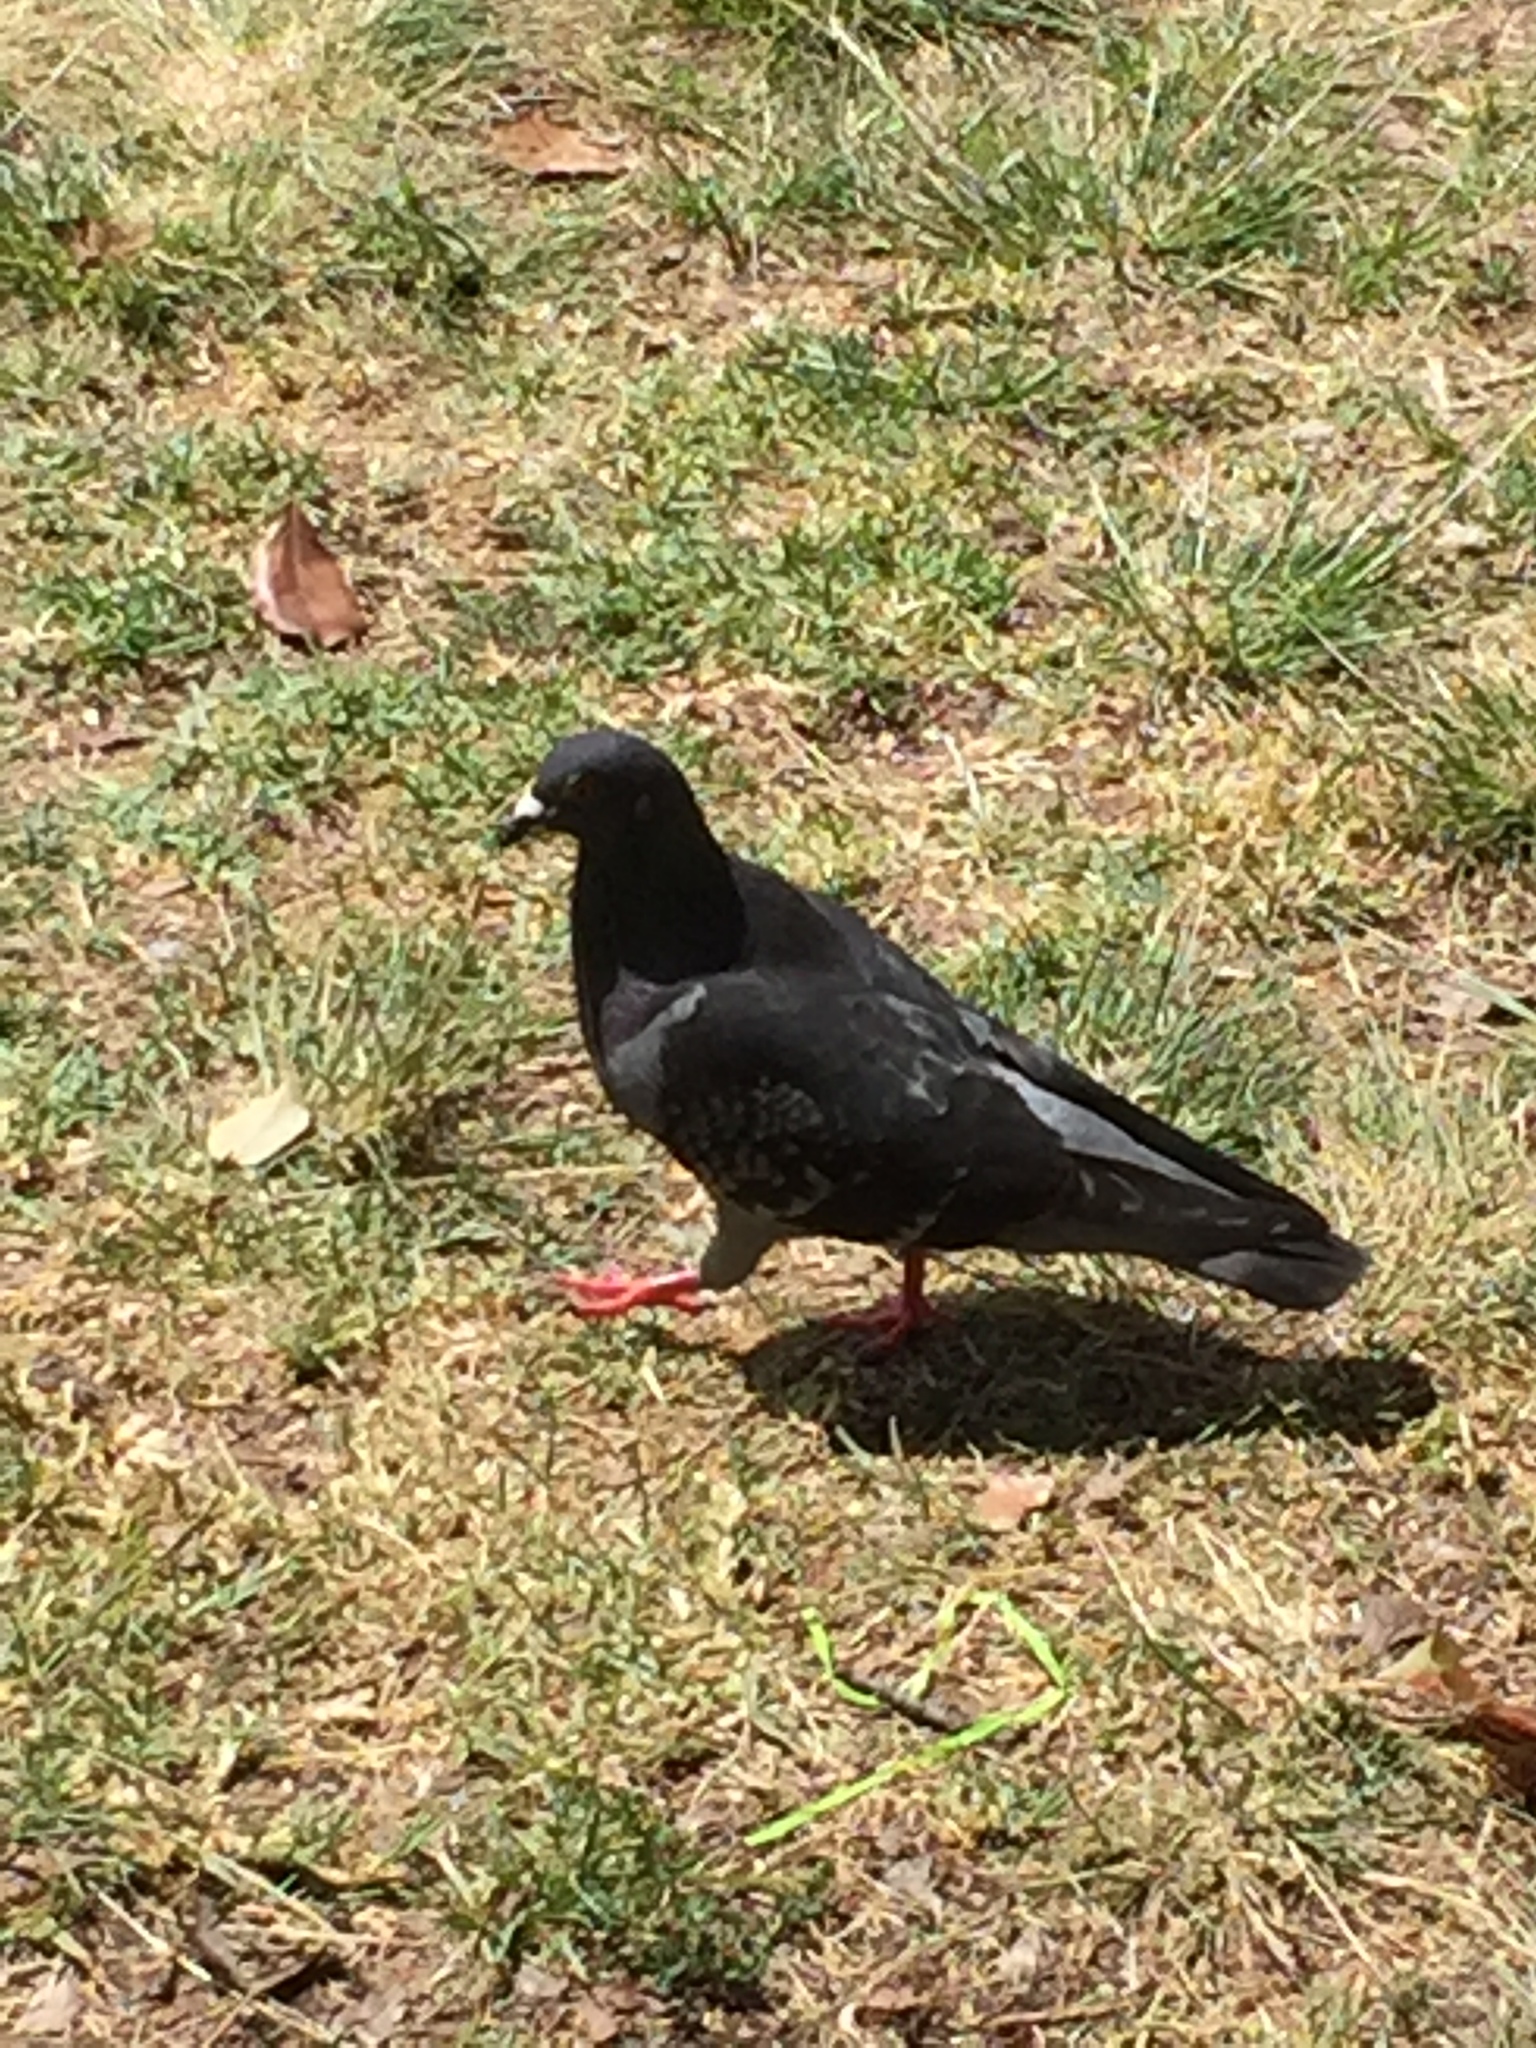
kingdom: Animalia
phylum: Chordata
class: Aves
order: Columbiformes
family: Columbidae
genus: Columba
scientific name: Columba livia
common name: Rock pigeon
